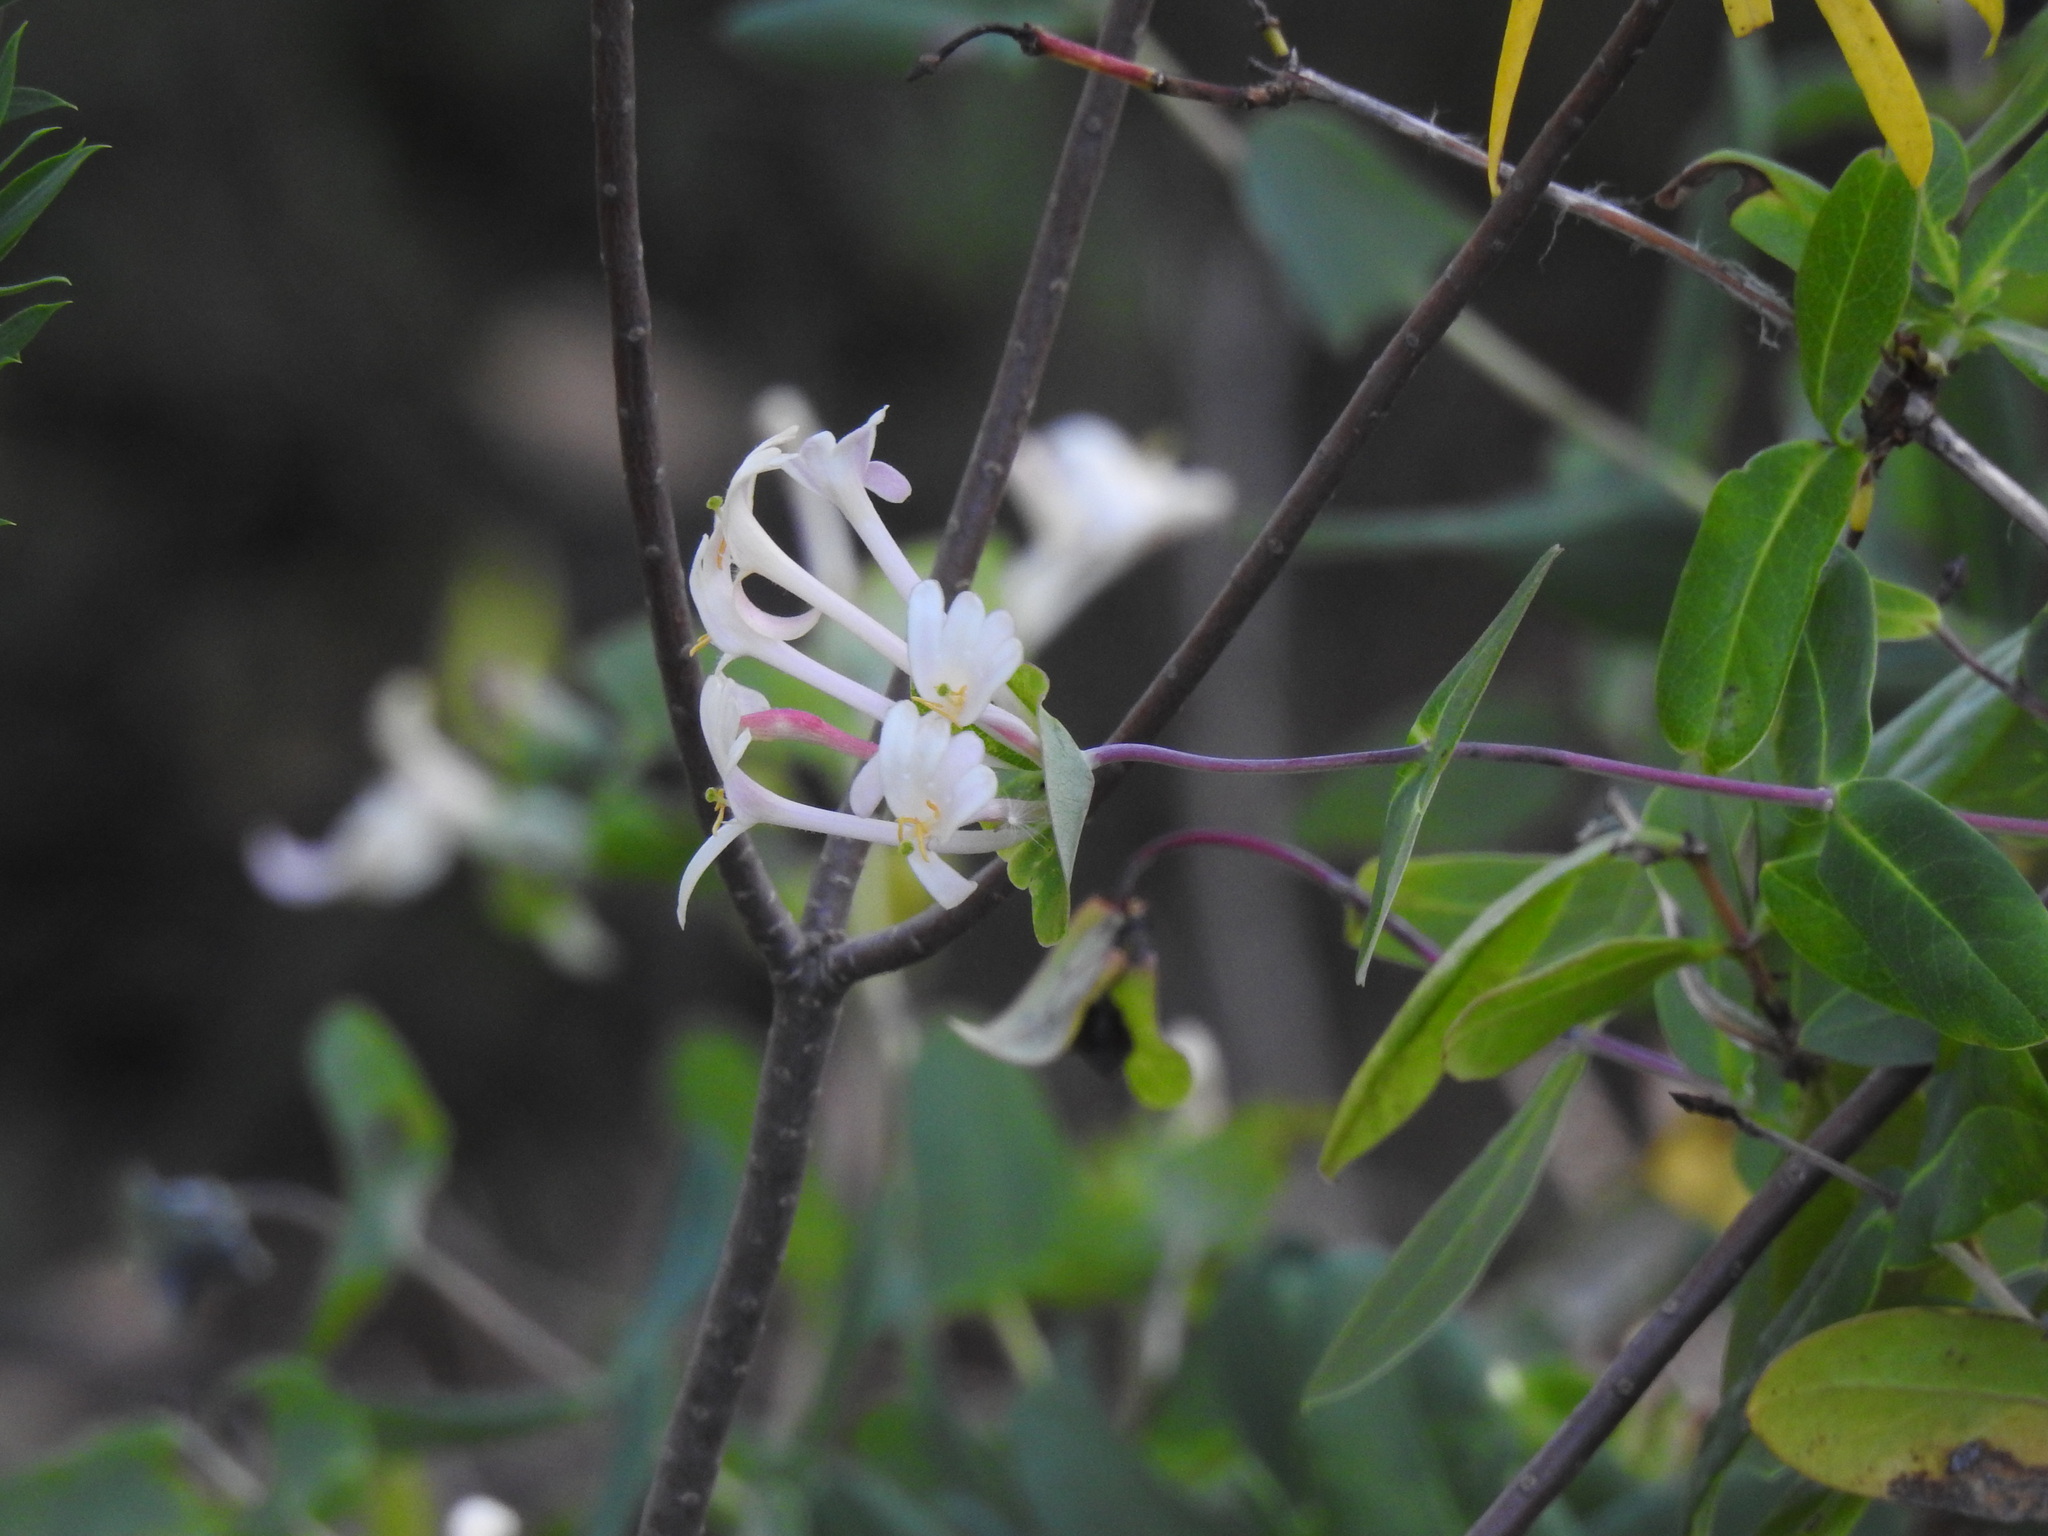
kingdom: Plantae
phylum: Tracheophyta
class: Magnoliopsida
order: Dipsacales
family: Caprifoliaceae
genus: Lonicera
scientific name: Lonicera implexa
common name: Minorca honeysuckle
